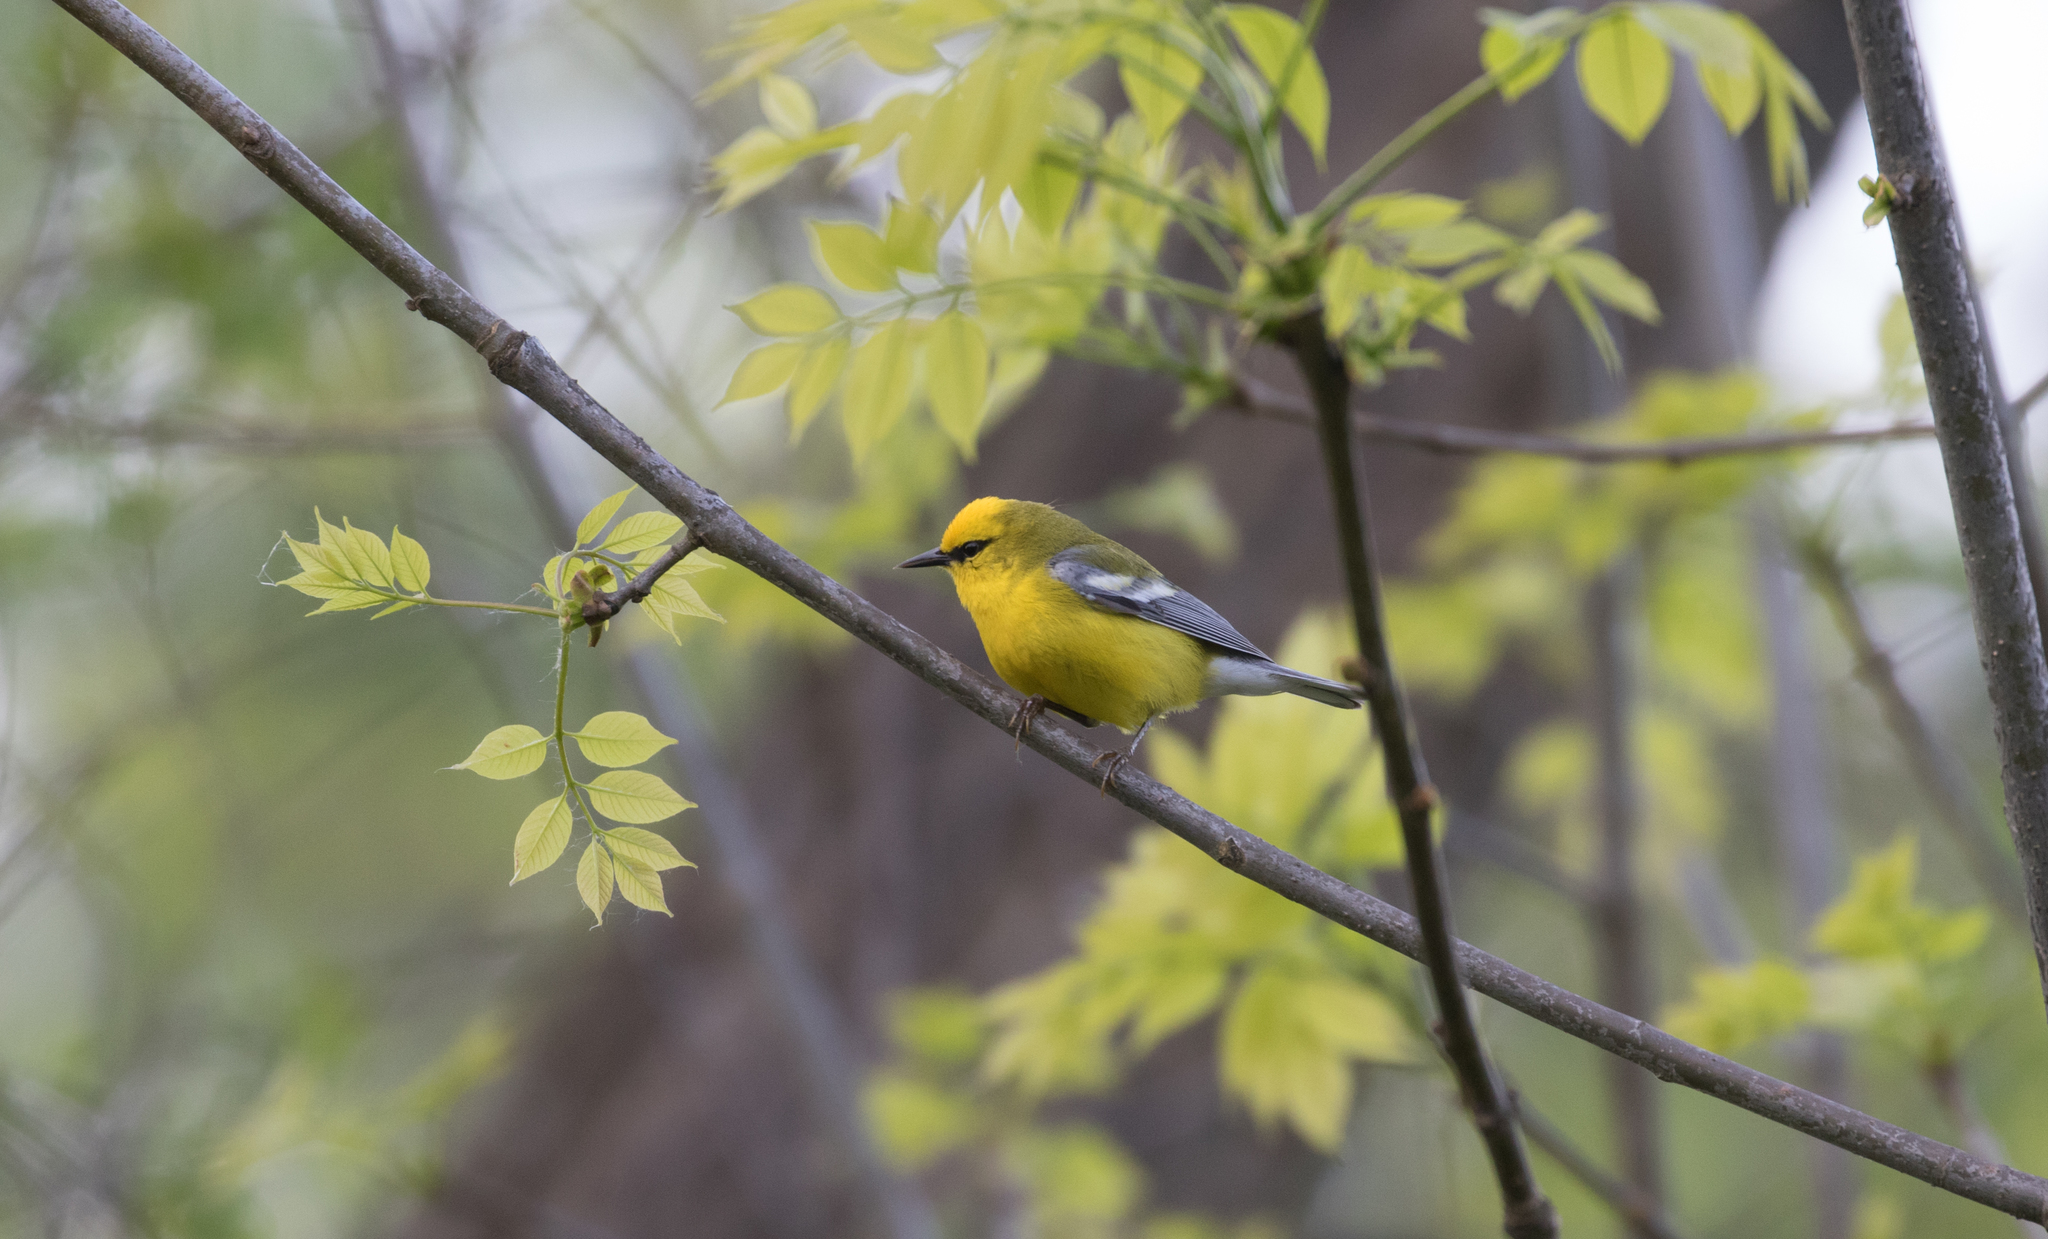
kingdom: Animalia
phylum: Chordata
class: Aves
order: Passeriformes
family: Parulidae
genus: Vermivora
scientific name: Vermivora cyanoptera
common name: Blue-winged warbler
